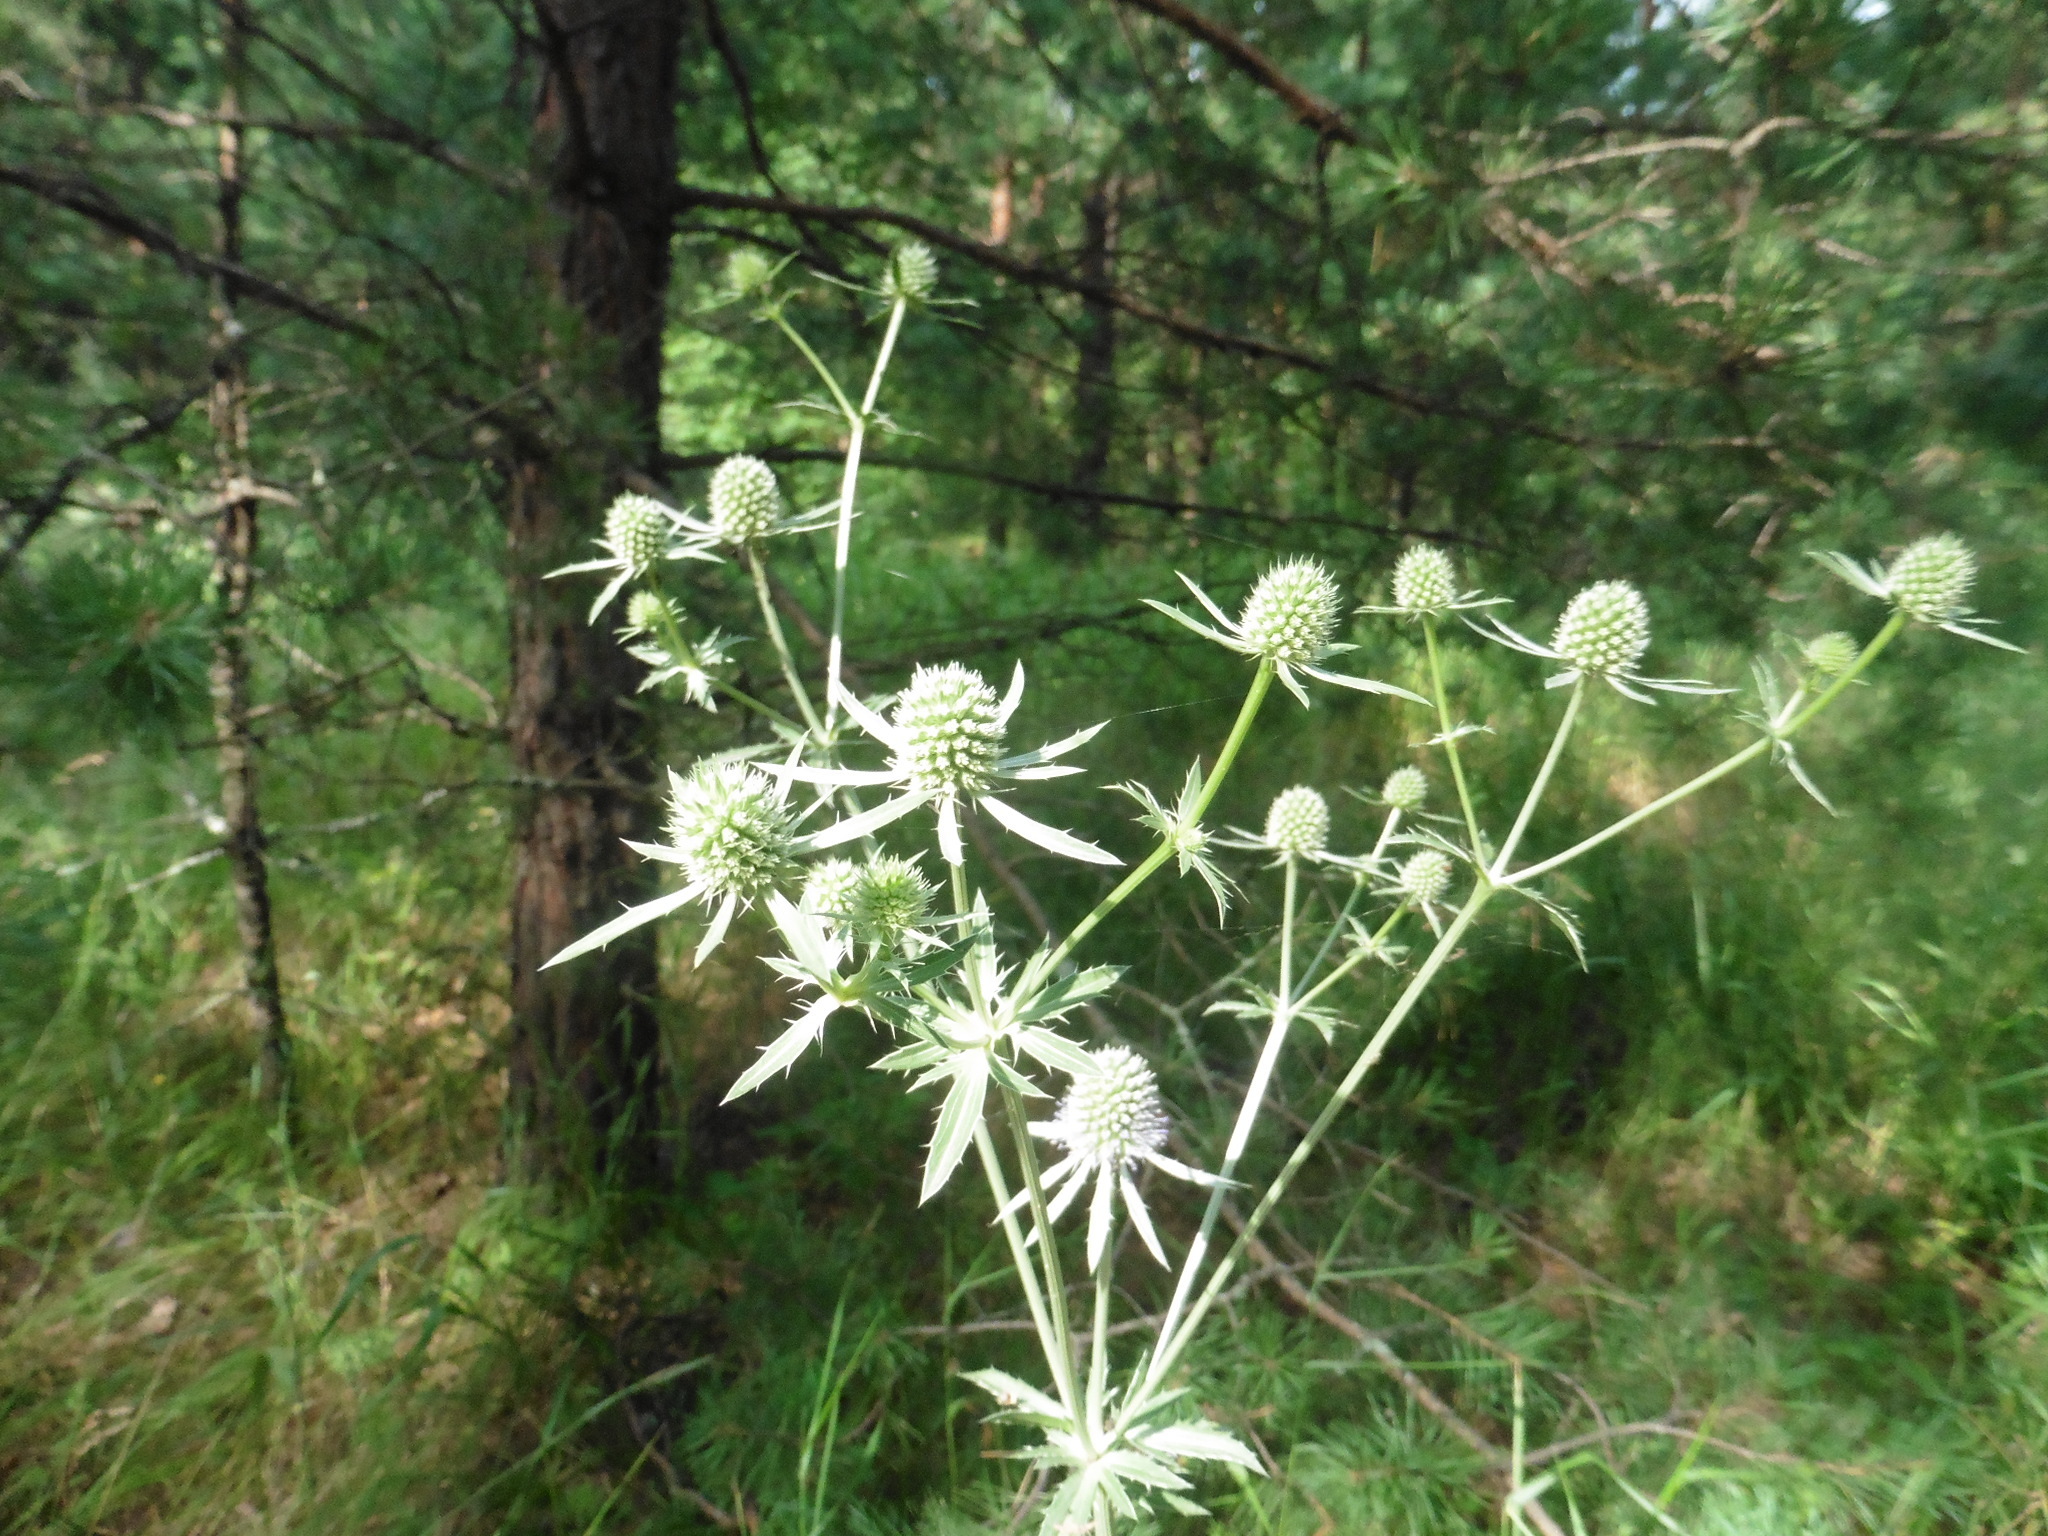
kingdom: Plantae
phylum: Tracheophyta
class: Magnoliopsida
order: Apiales
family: Apiaceae
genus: Eryngium
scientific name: Eryngium planum
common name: Blue eryngo
